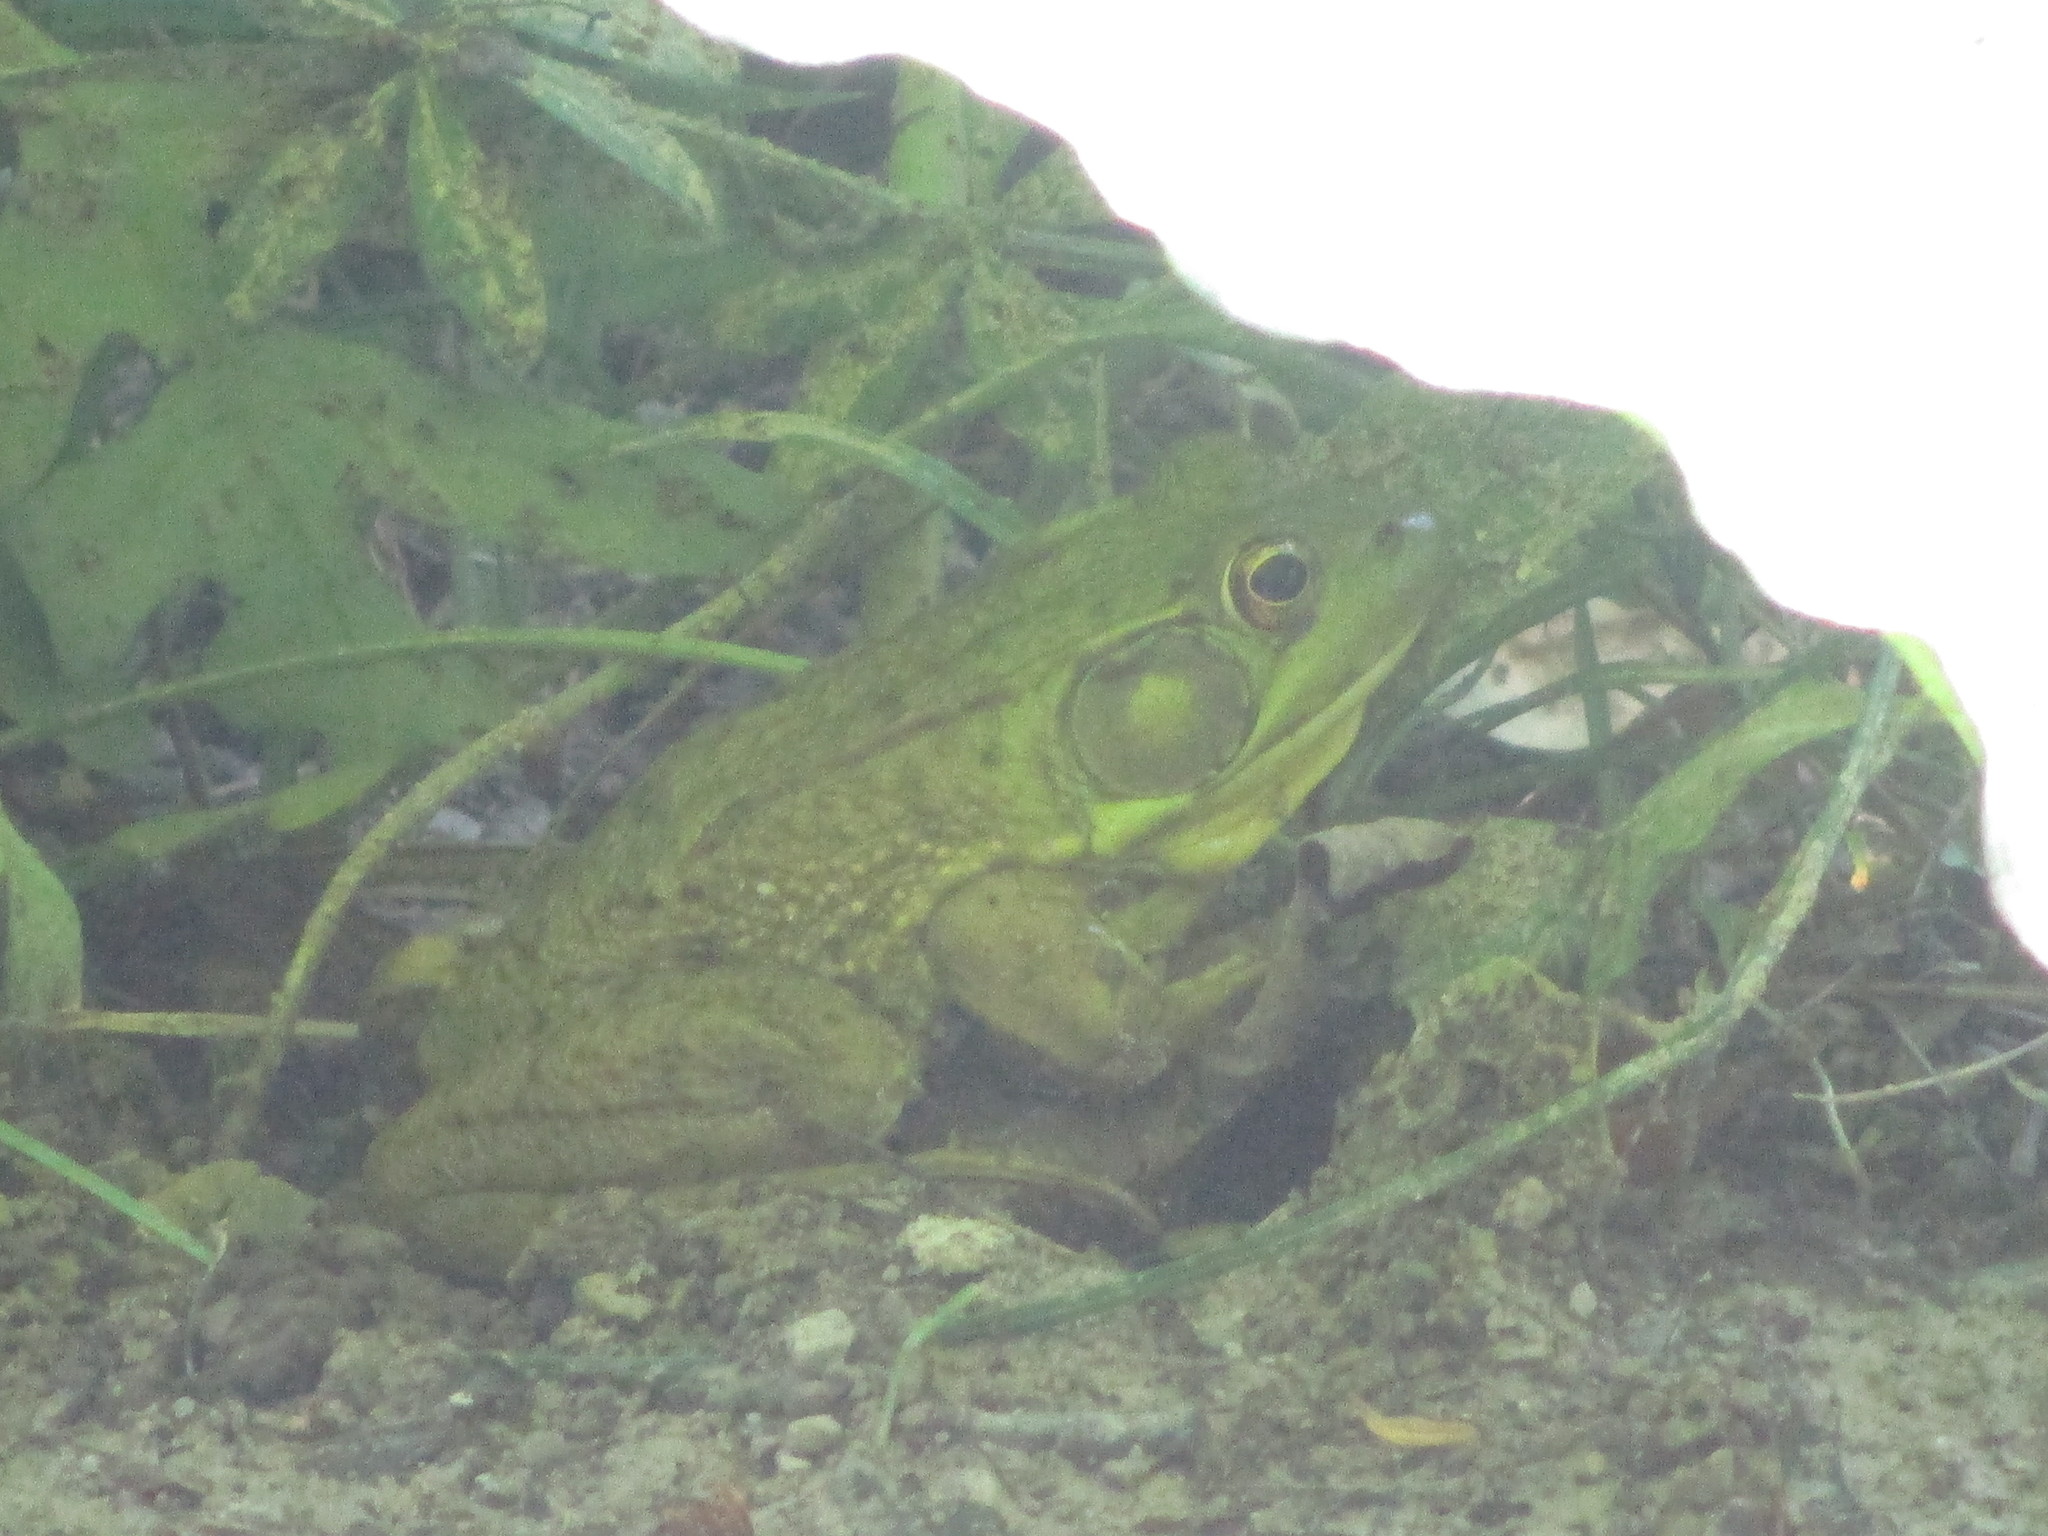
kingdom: Animalia
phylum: Chordata
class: Amphibia
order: Anura
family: Ranidae
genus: Lithobates
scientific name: Lithobates clamitans
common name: Green frog
